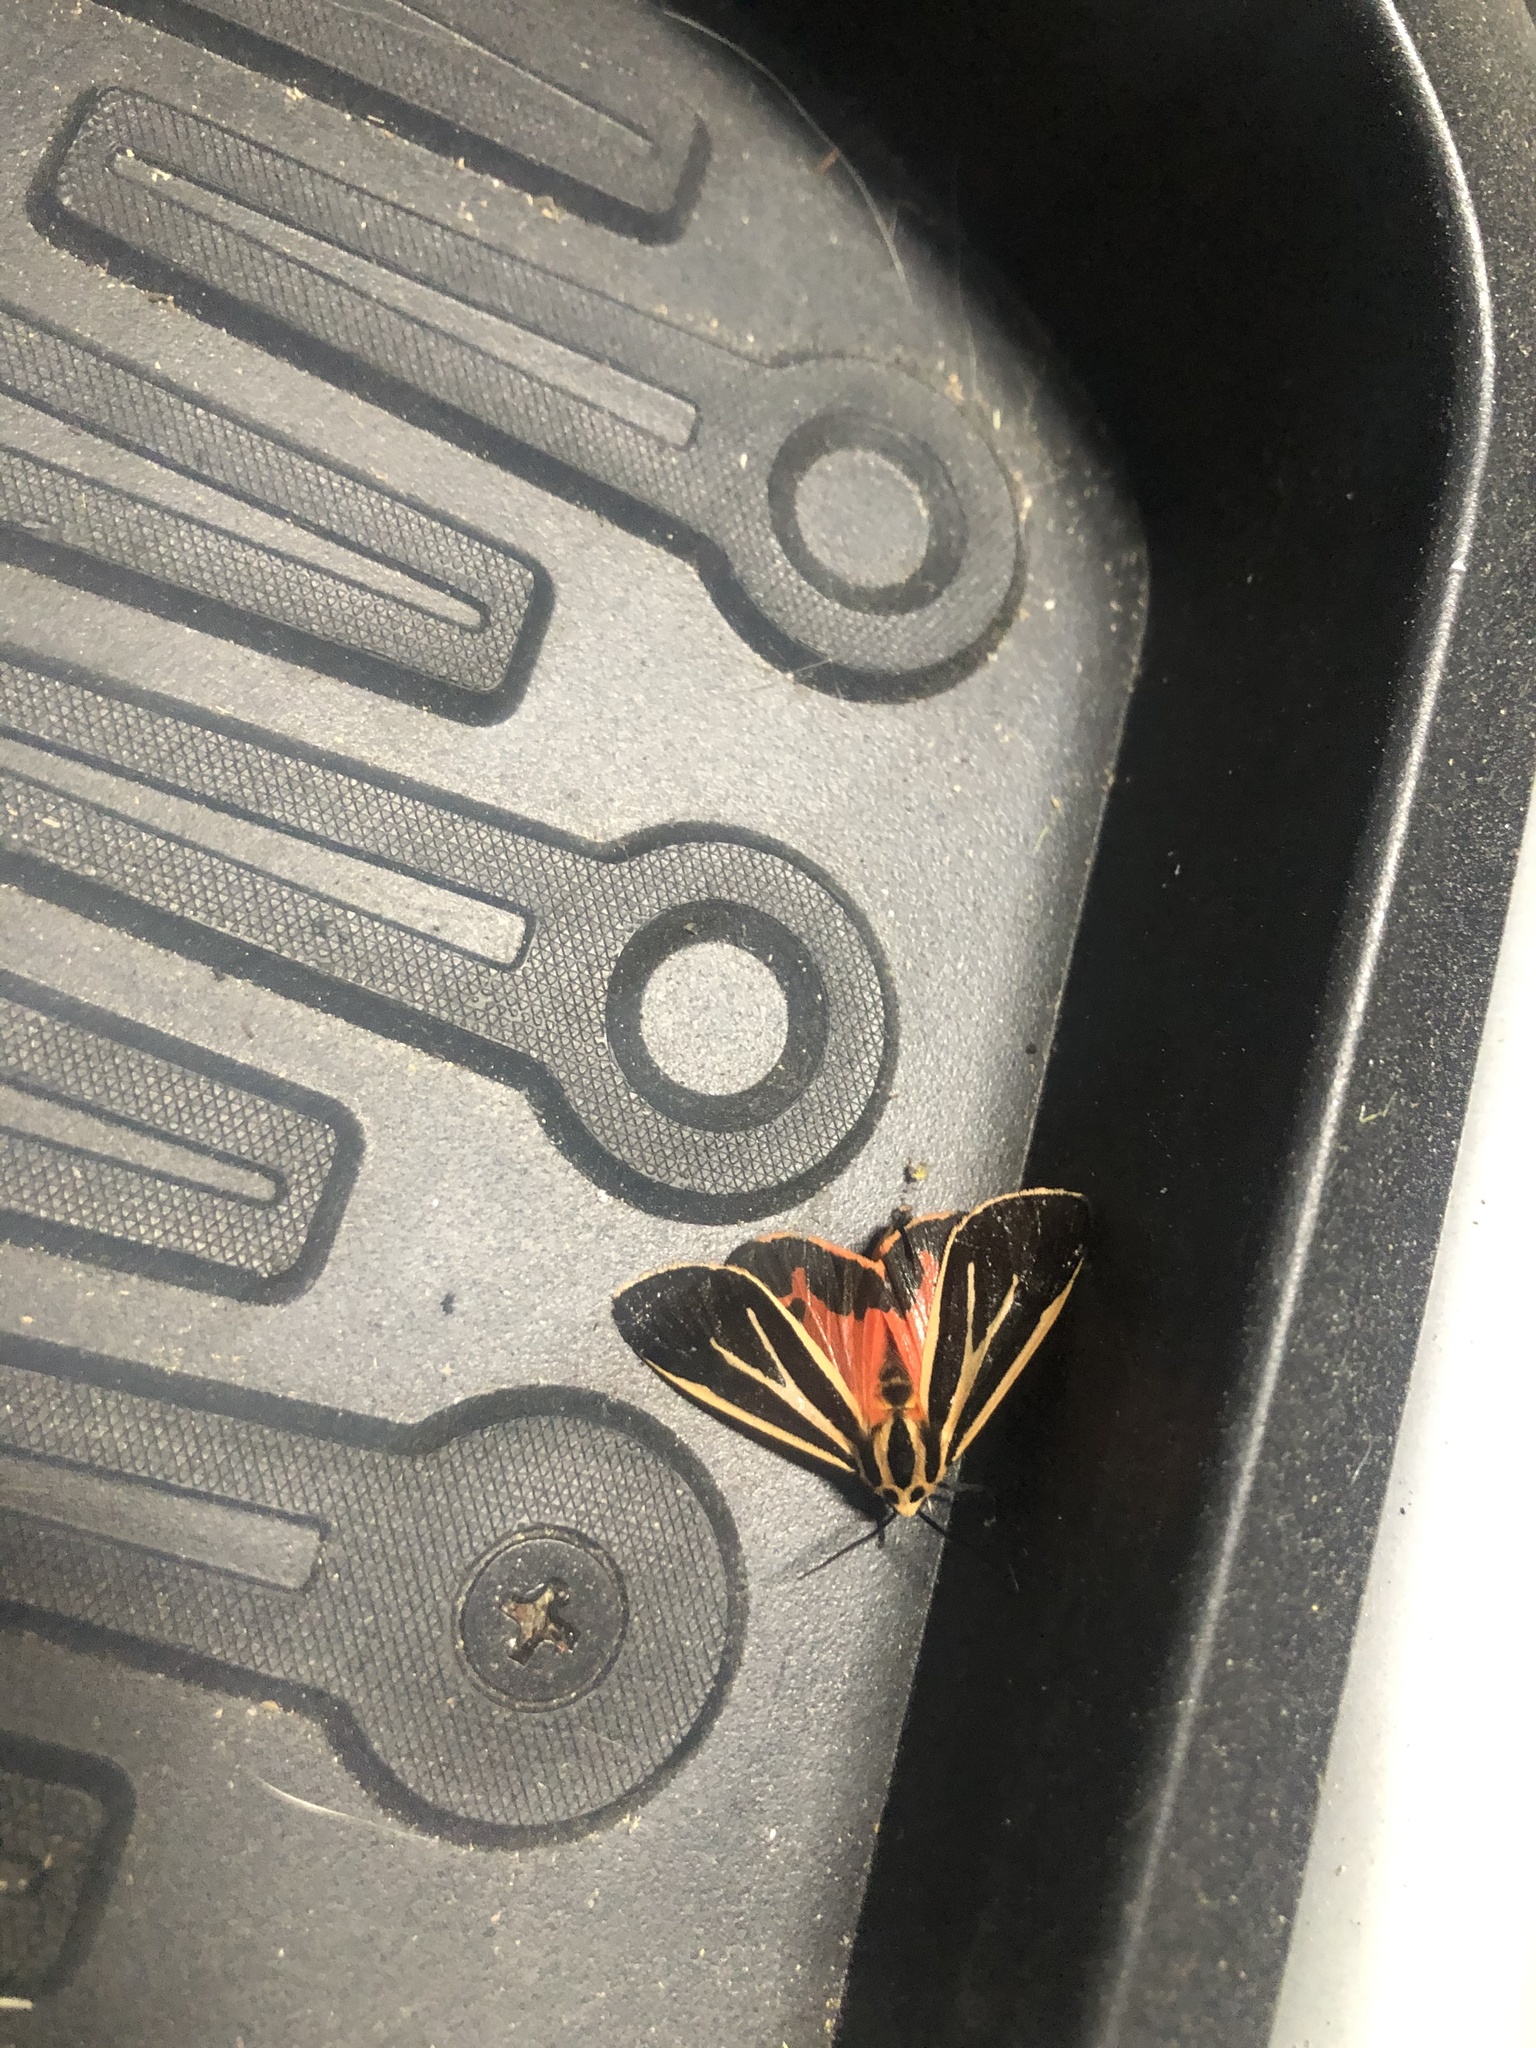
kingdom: Animalia
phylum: Arthropoda
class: Insecta
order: Lepidoptera
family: Erebidae
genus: Apantesis
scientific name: Apantesis vittata
